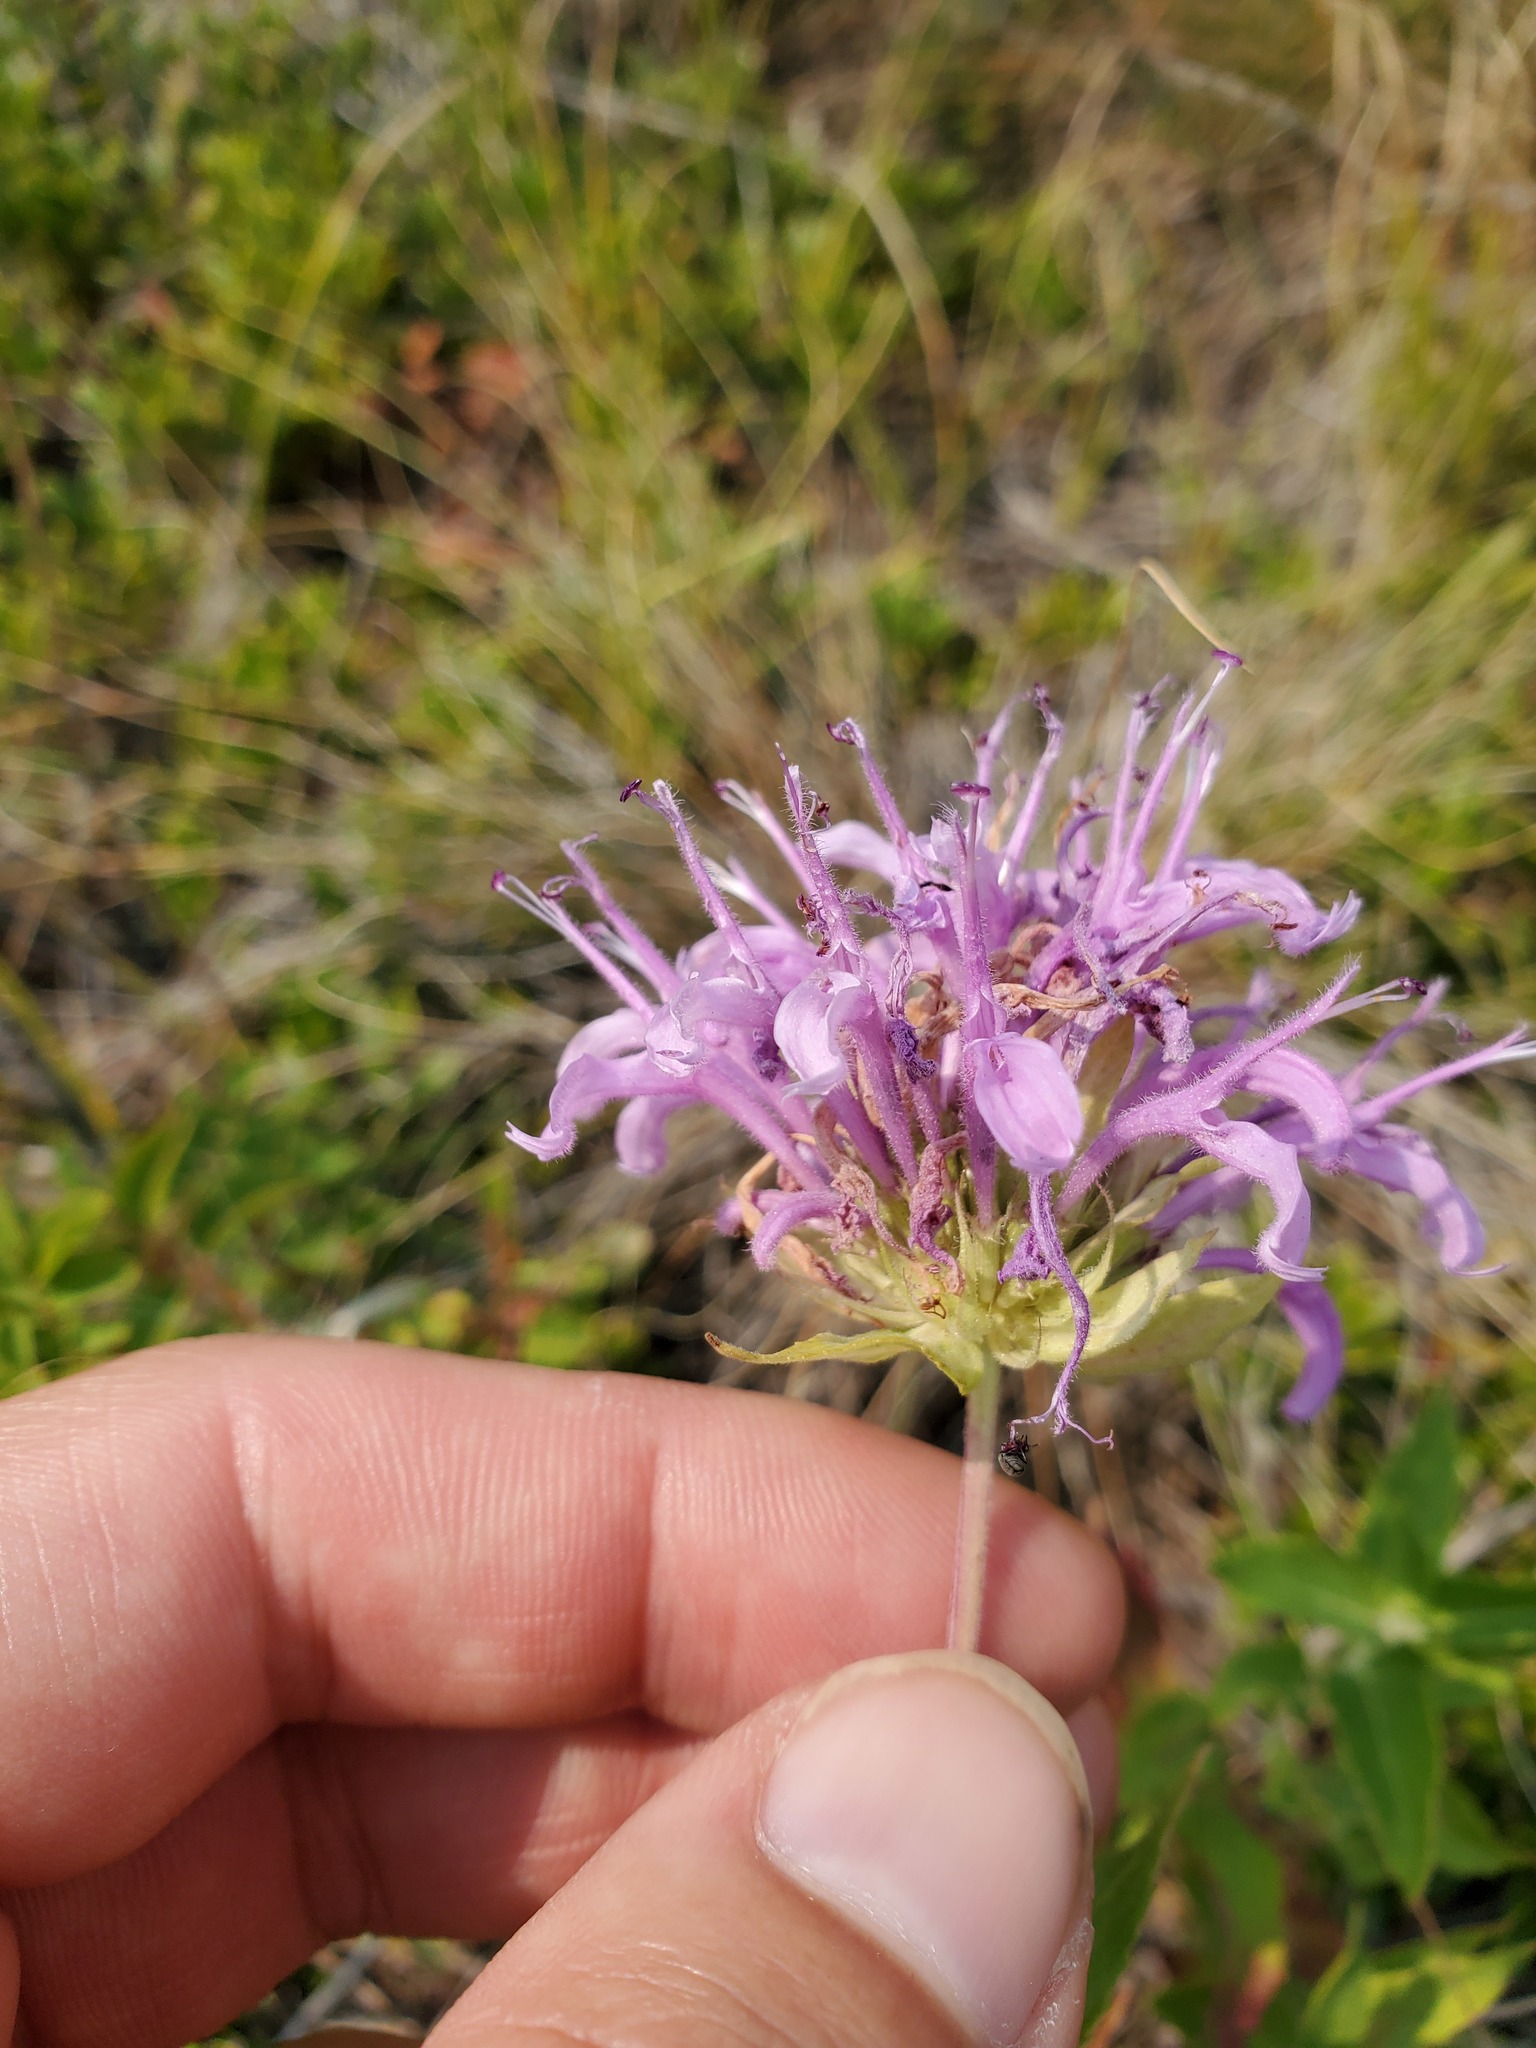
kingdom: Plantae
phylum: Tracheophyta
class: Magnoliopsida
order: Lamiales
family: Lamiaceae
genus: Monarda
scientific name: Monarda fistulosa
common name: Purple beebalm
